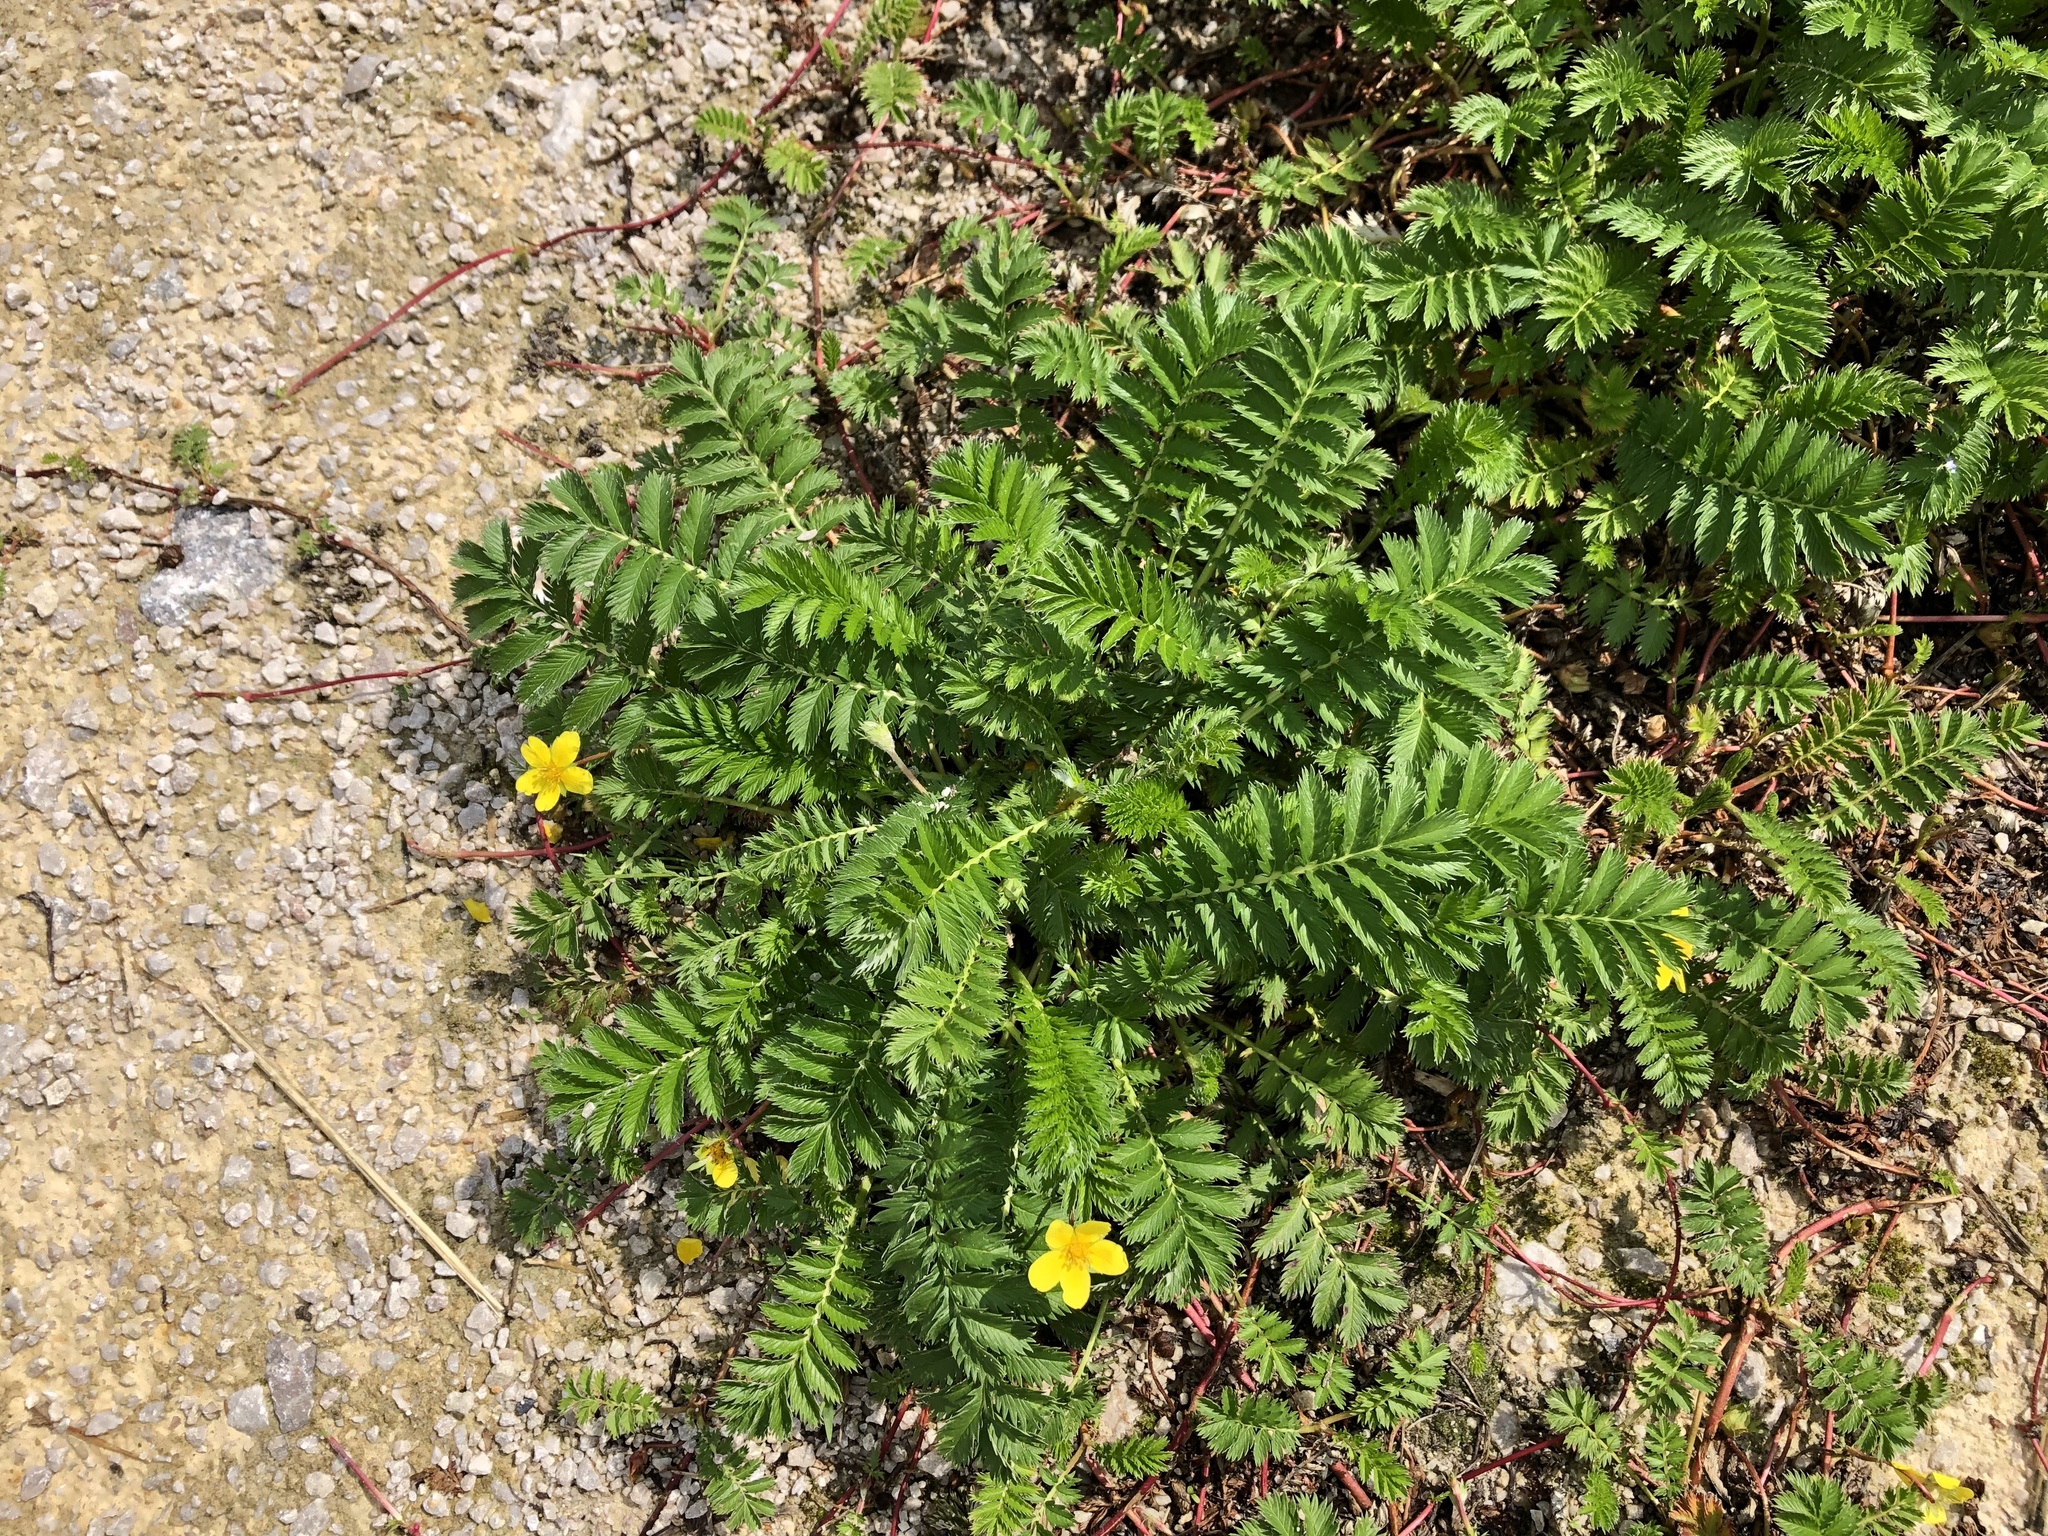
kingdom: Plantae
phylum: Tracheophyta
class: Magnoliopsida
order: Rosales
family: Rosaceae
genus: Argentina
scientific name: Argentina anserina
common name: Common silverweed
